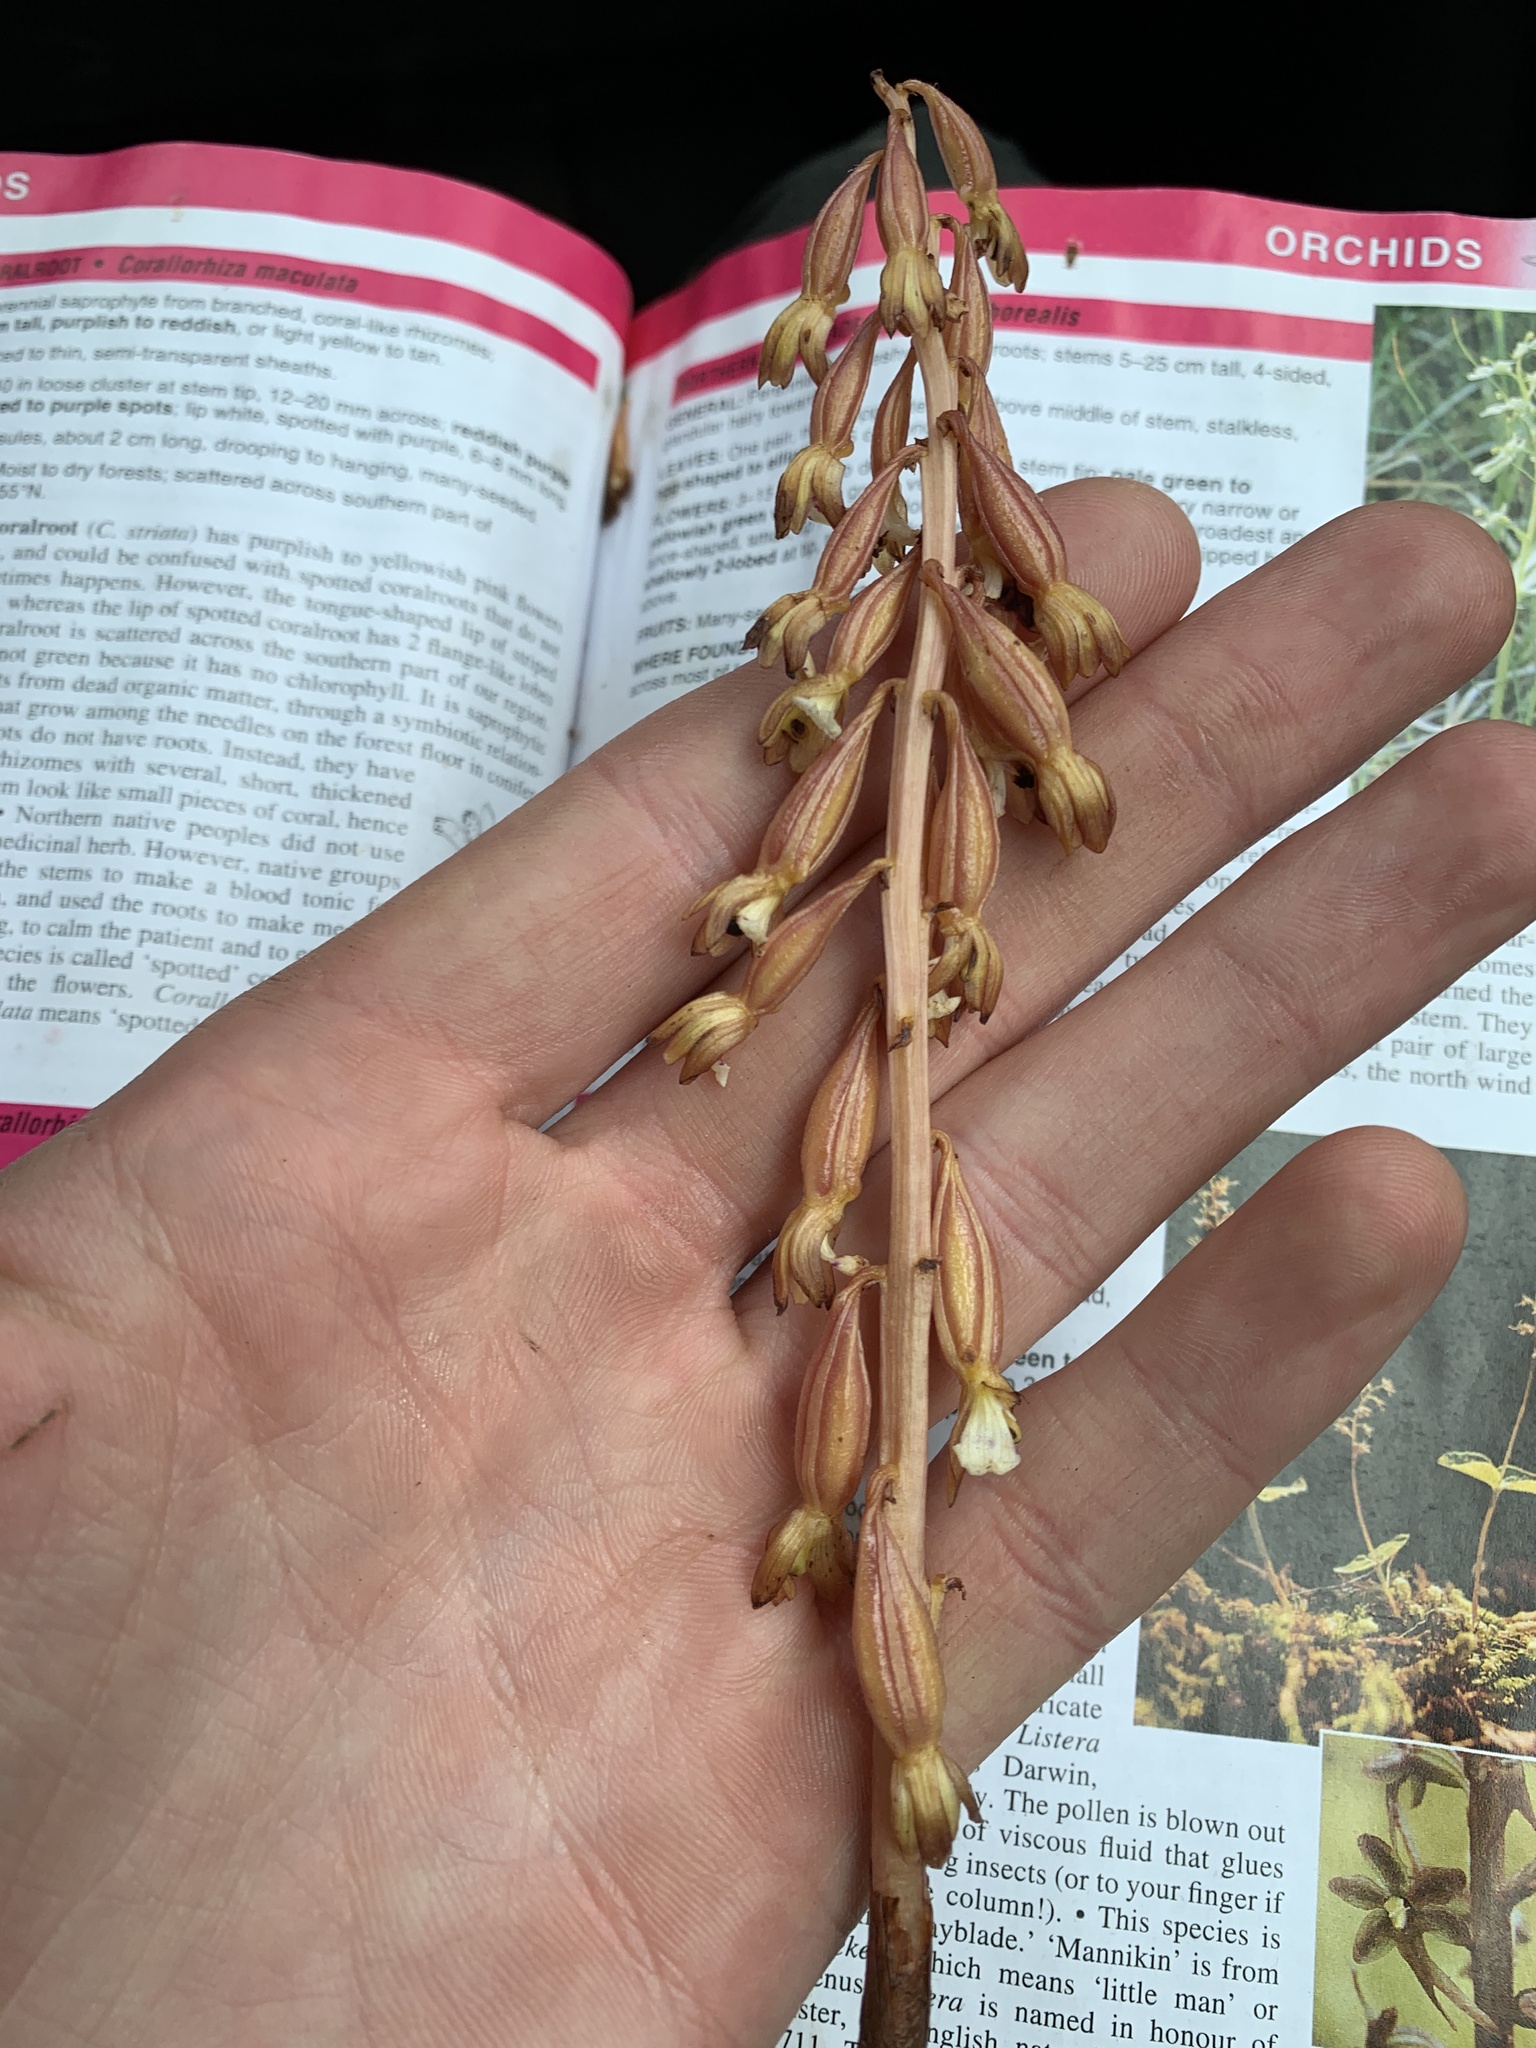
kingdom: Plantae
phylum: Tracheophyta
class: Liliopsida
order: Asparagales
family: Orchidaceae
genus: Corallorhiza
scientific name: Corallorhiza maculata
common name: Spotted coralroot
